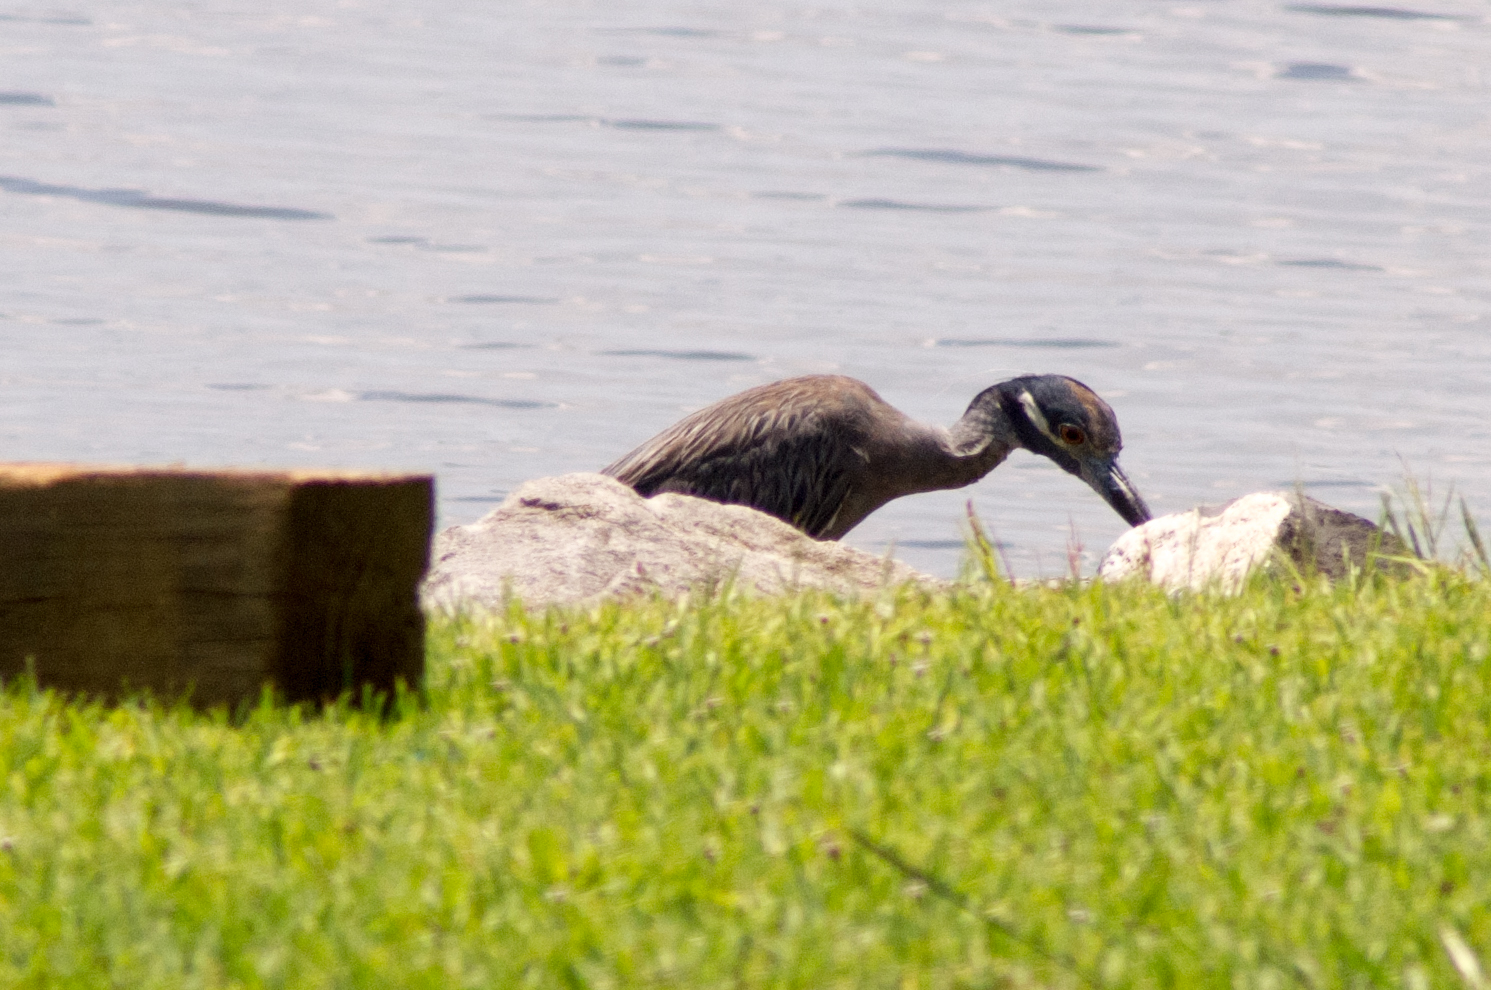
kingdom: Animalia
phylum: Chordata
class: Aves
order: Pelecaniformes
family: Ardeidae
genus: Nyctanassa
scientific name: Nyctanassa violacea
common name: Yellow-crowned night heron
